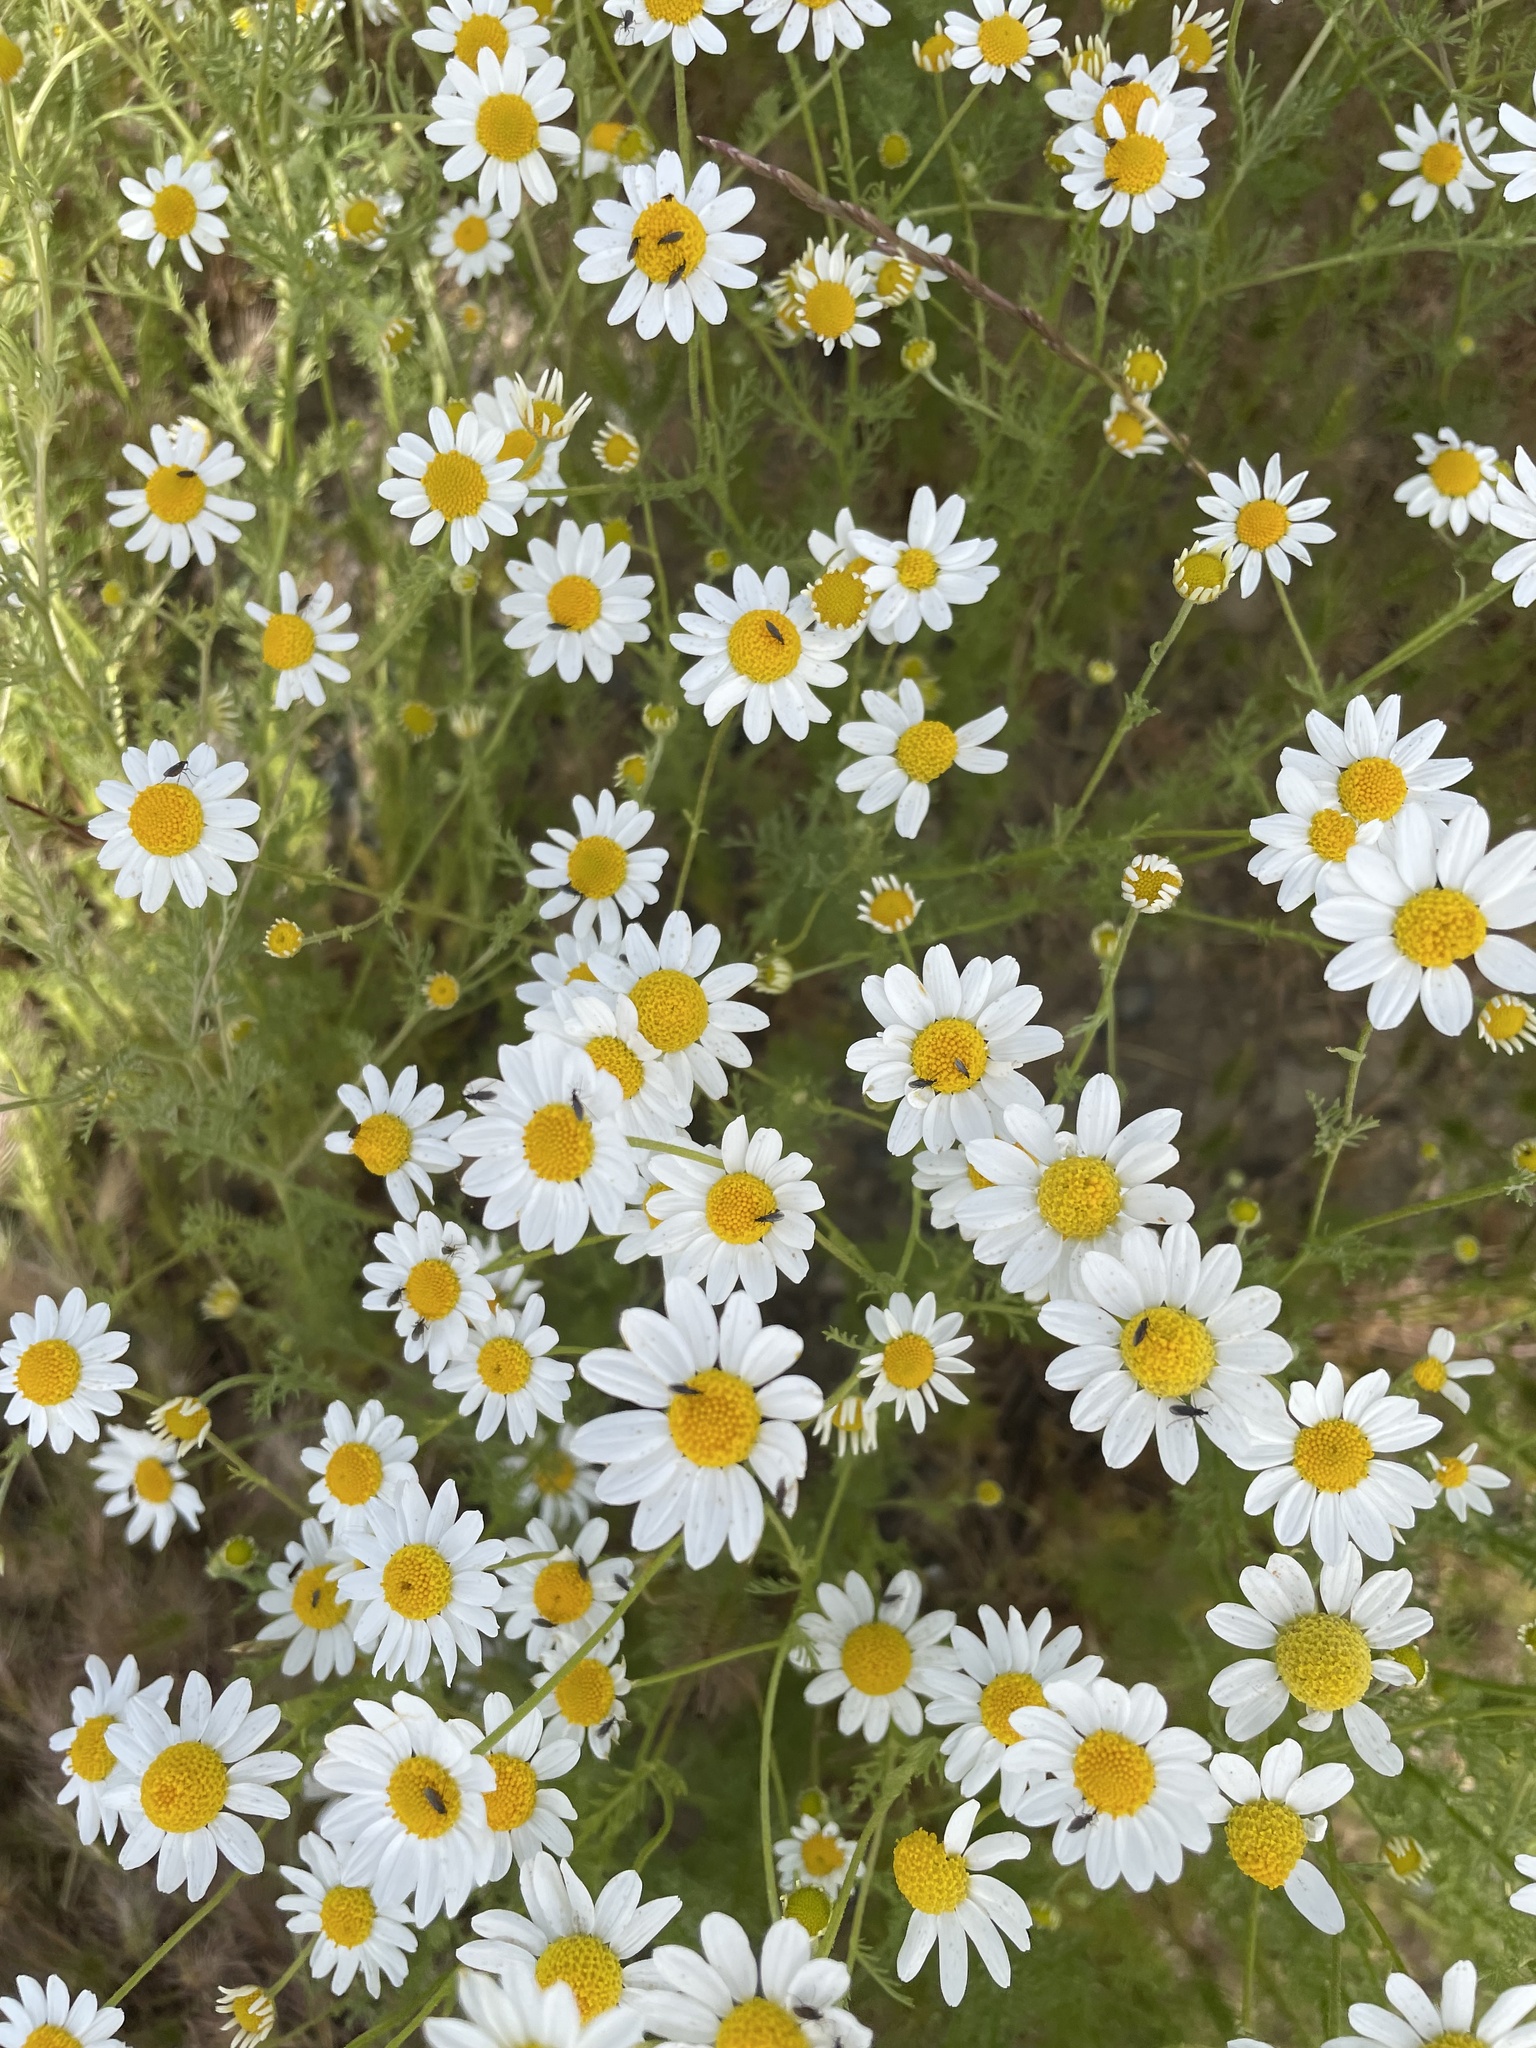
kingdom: Plantae
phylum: Tracheophyta
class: Magnoliopsida
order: Asterales
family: Asteraceae
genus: Anthemis
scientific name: Anthemis cotula
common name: Stinking chamomile
